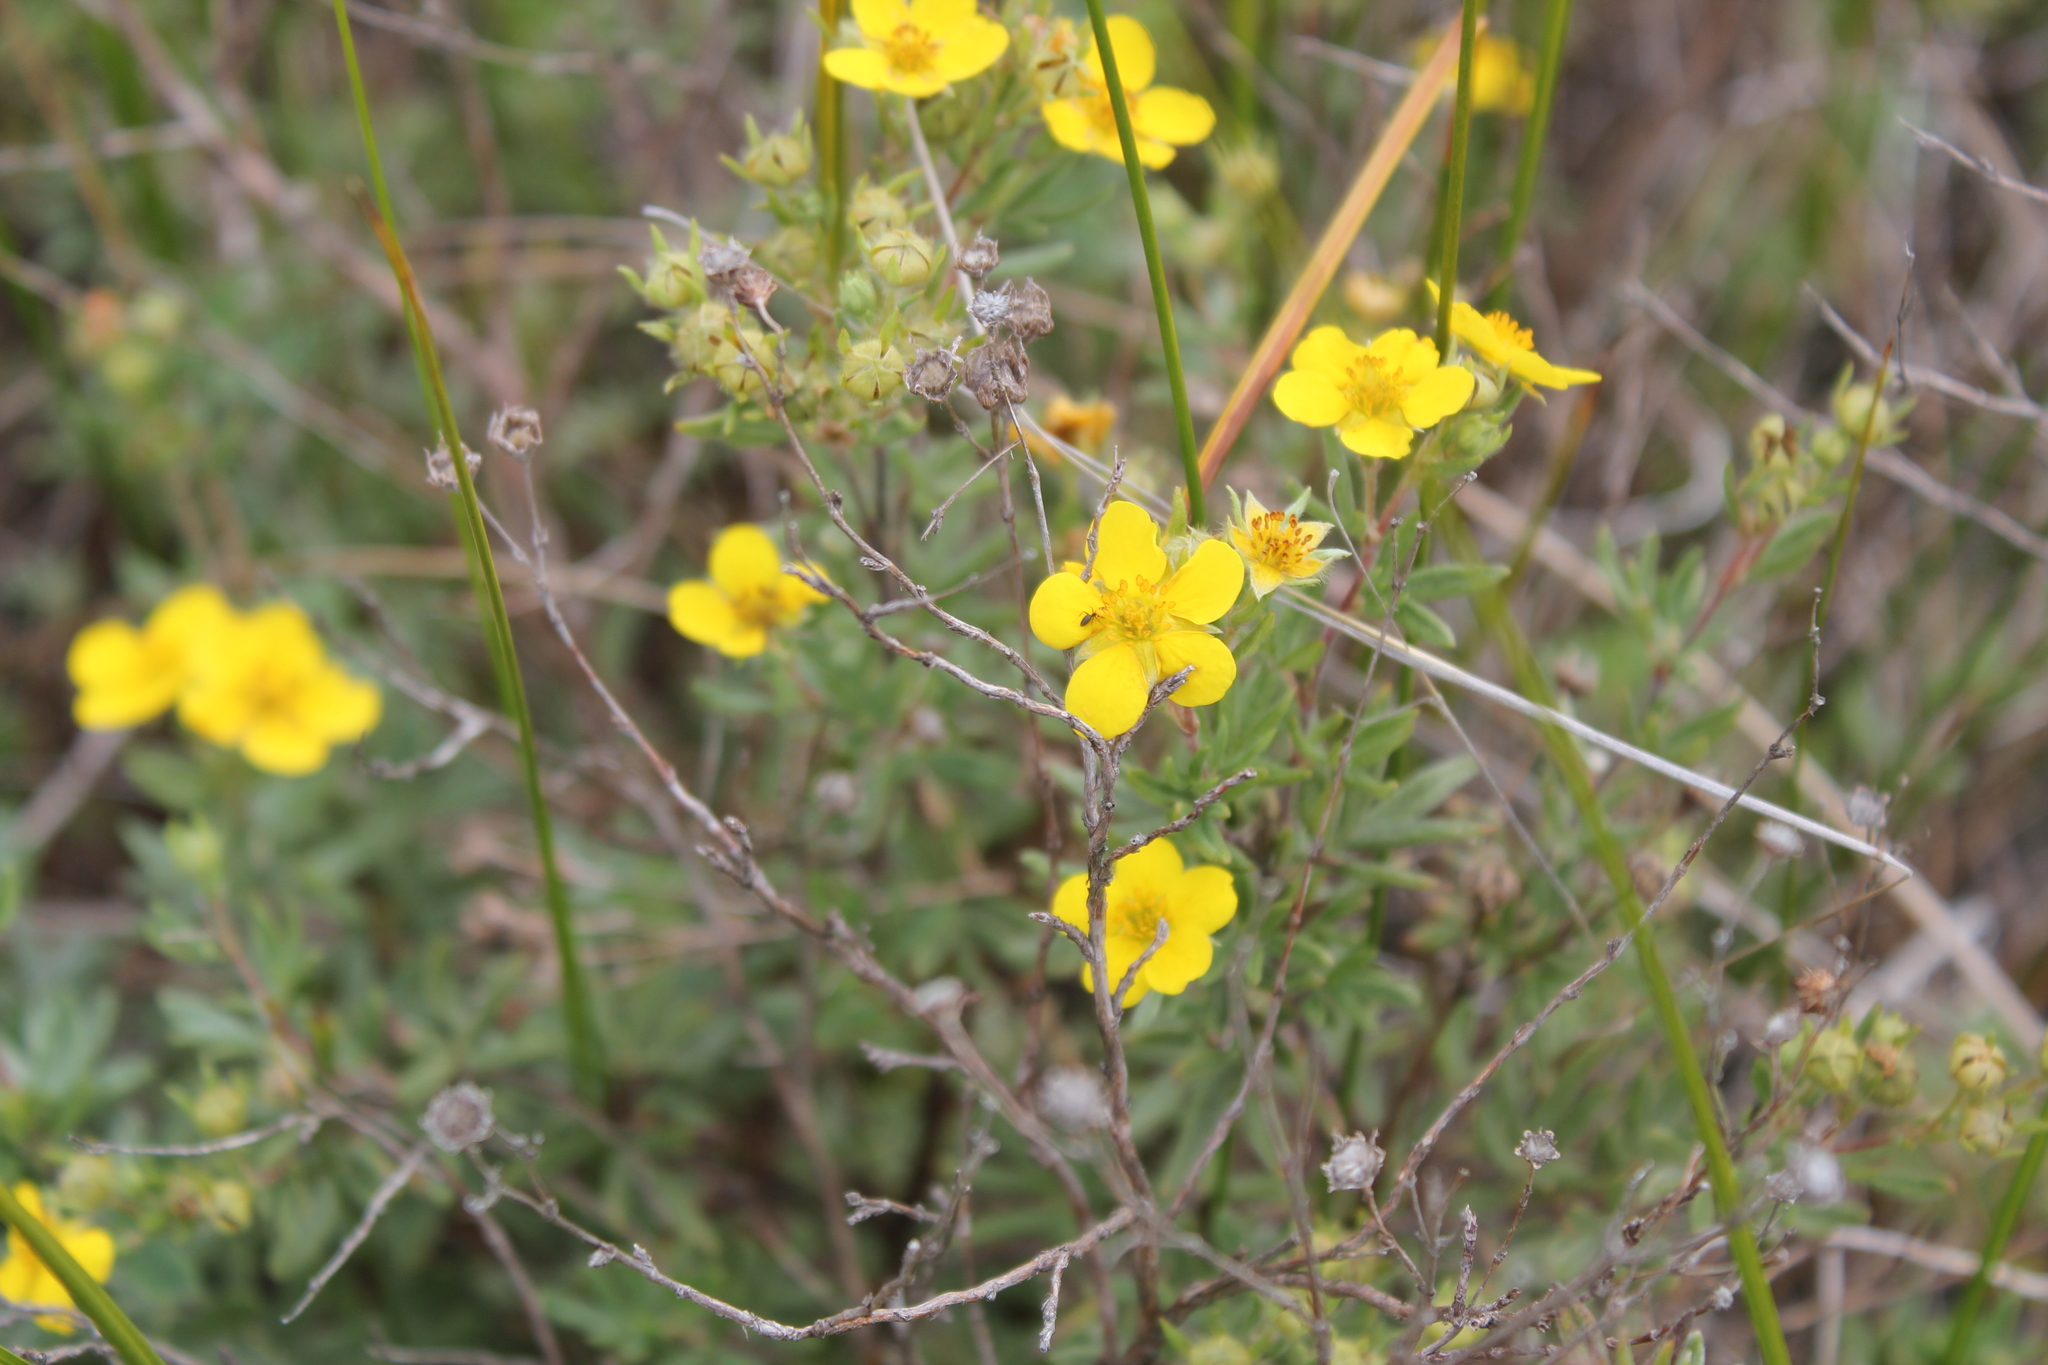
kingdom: Plantae
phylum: Tracheophyta
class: Magnoliopsida
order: Rosales
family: Rosaceae
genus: Dasiphora
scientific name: Dasiphora fruticosa
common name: Shrubby cinquefoil
